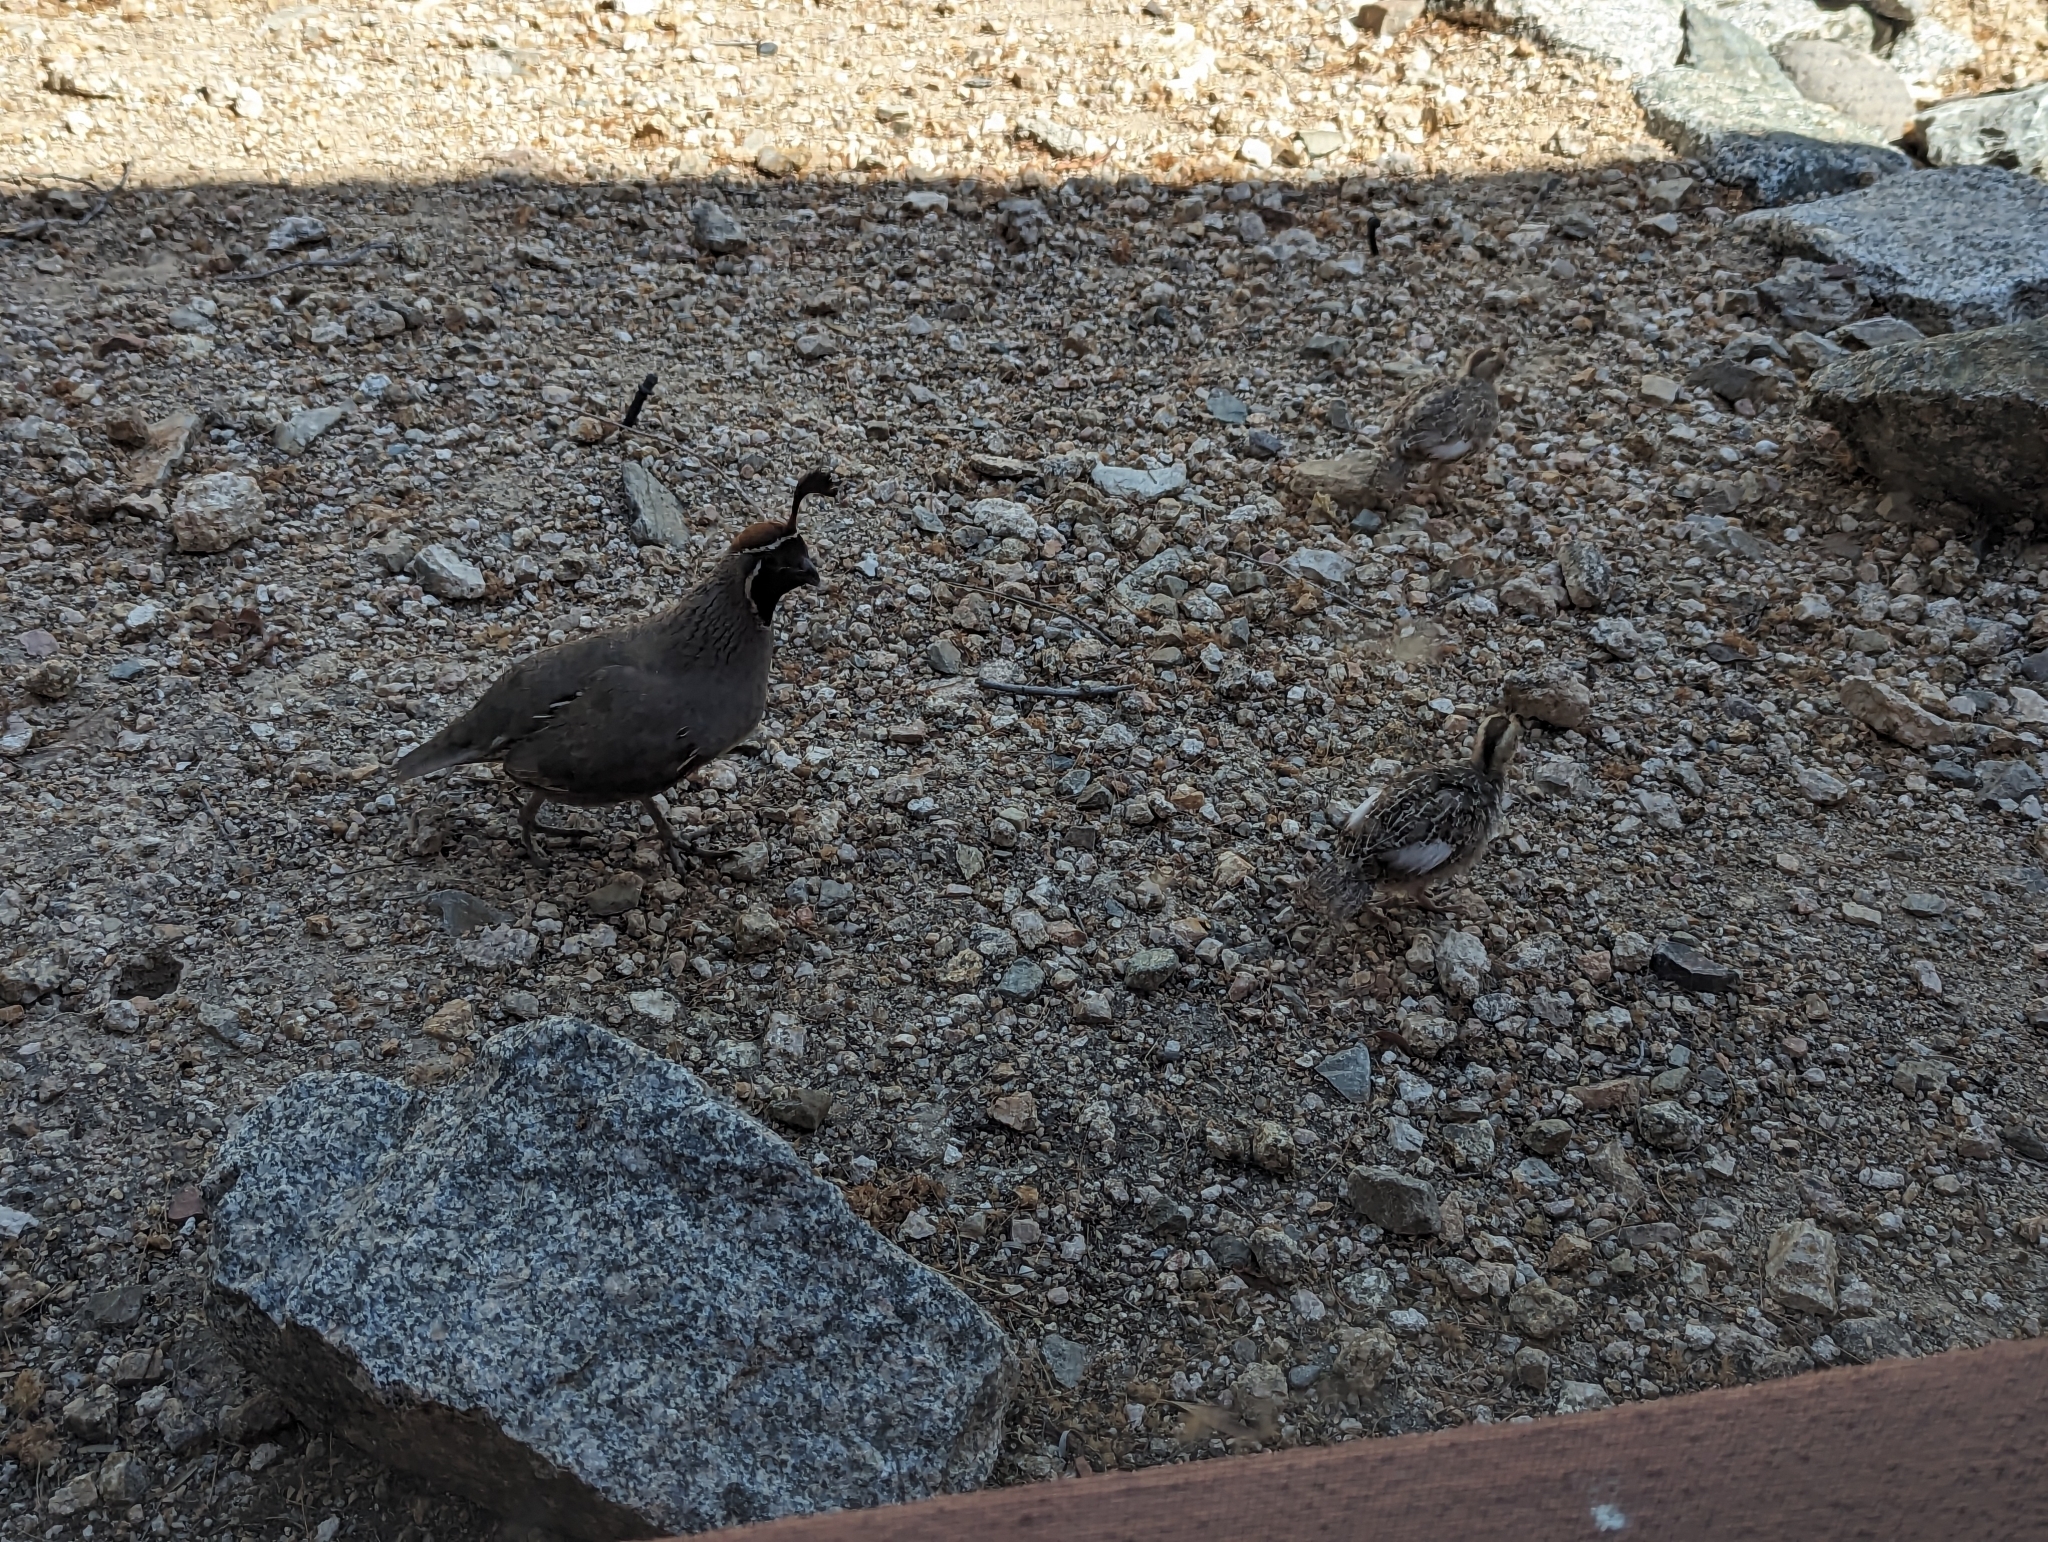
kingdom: Animalia
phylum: Chordata
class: Aves
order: Galliformes
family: Odontophoridae
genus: Callipepla
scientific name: Callipepla gambelii
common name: Gambel's quail
